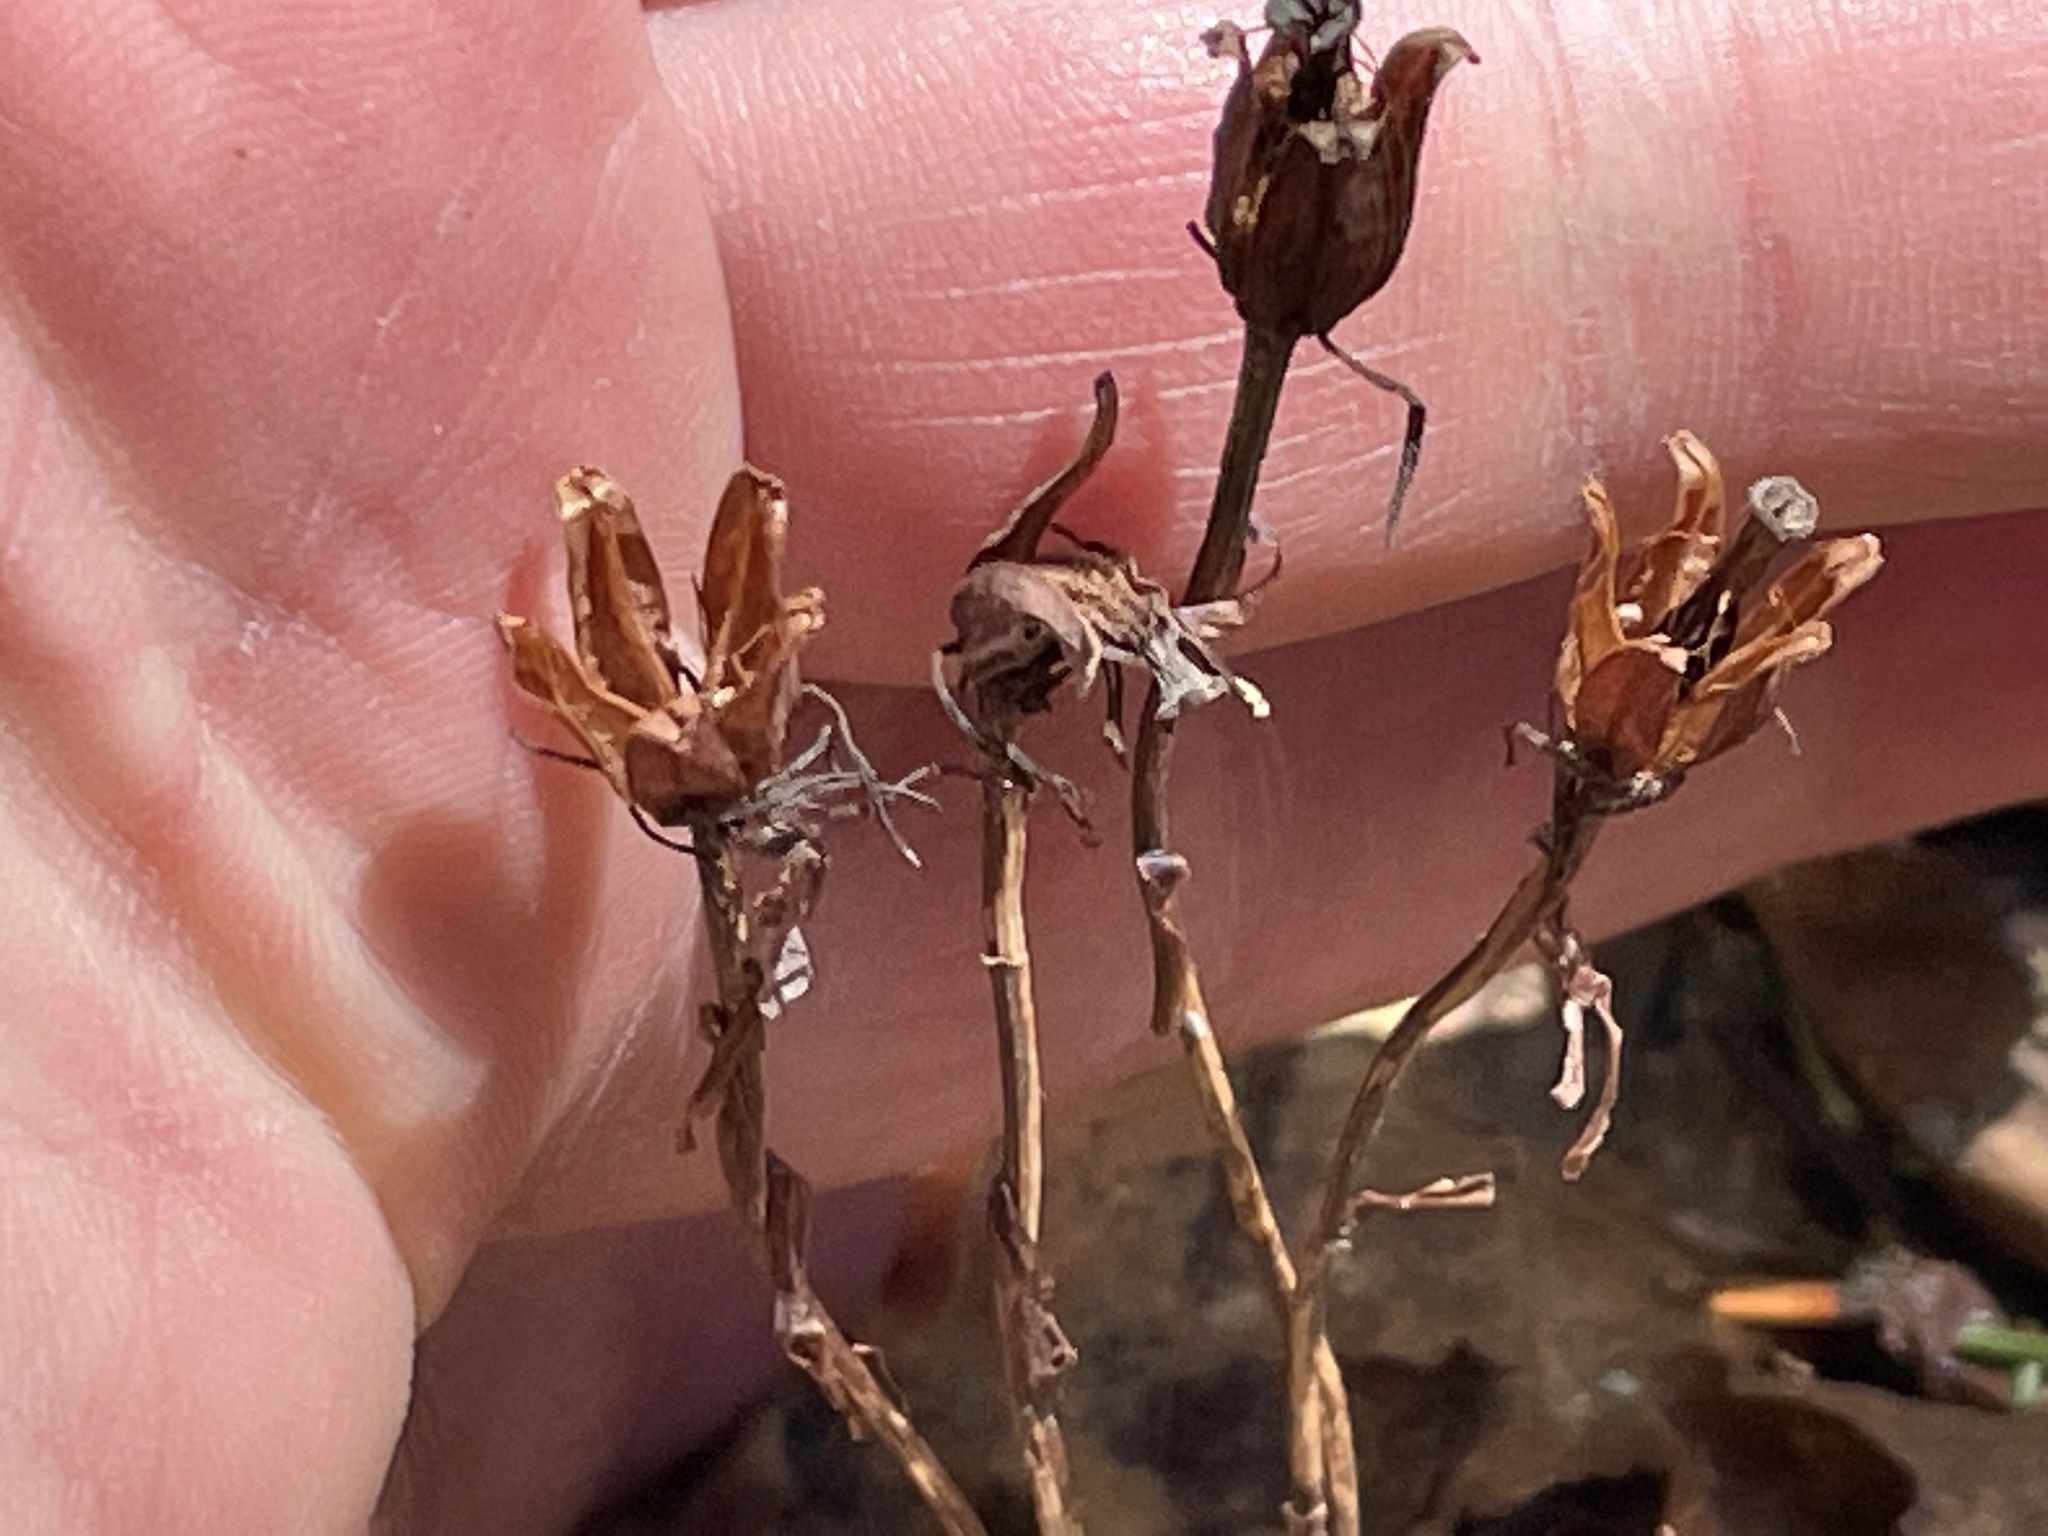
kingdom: Plantae
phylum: Tracheophyta
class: Magnoliopsida
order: Ericales
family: Ericaceae
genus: Monotropa
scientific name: Monotropa uniflora
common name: Convulsion root
